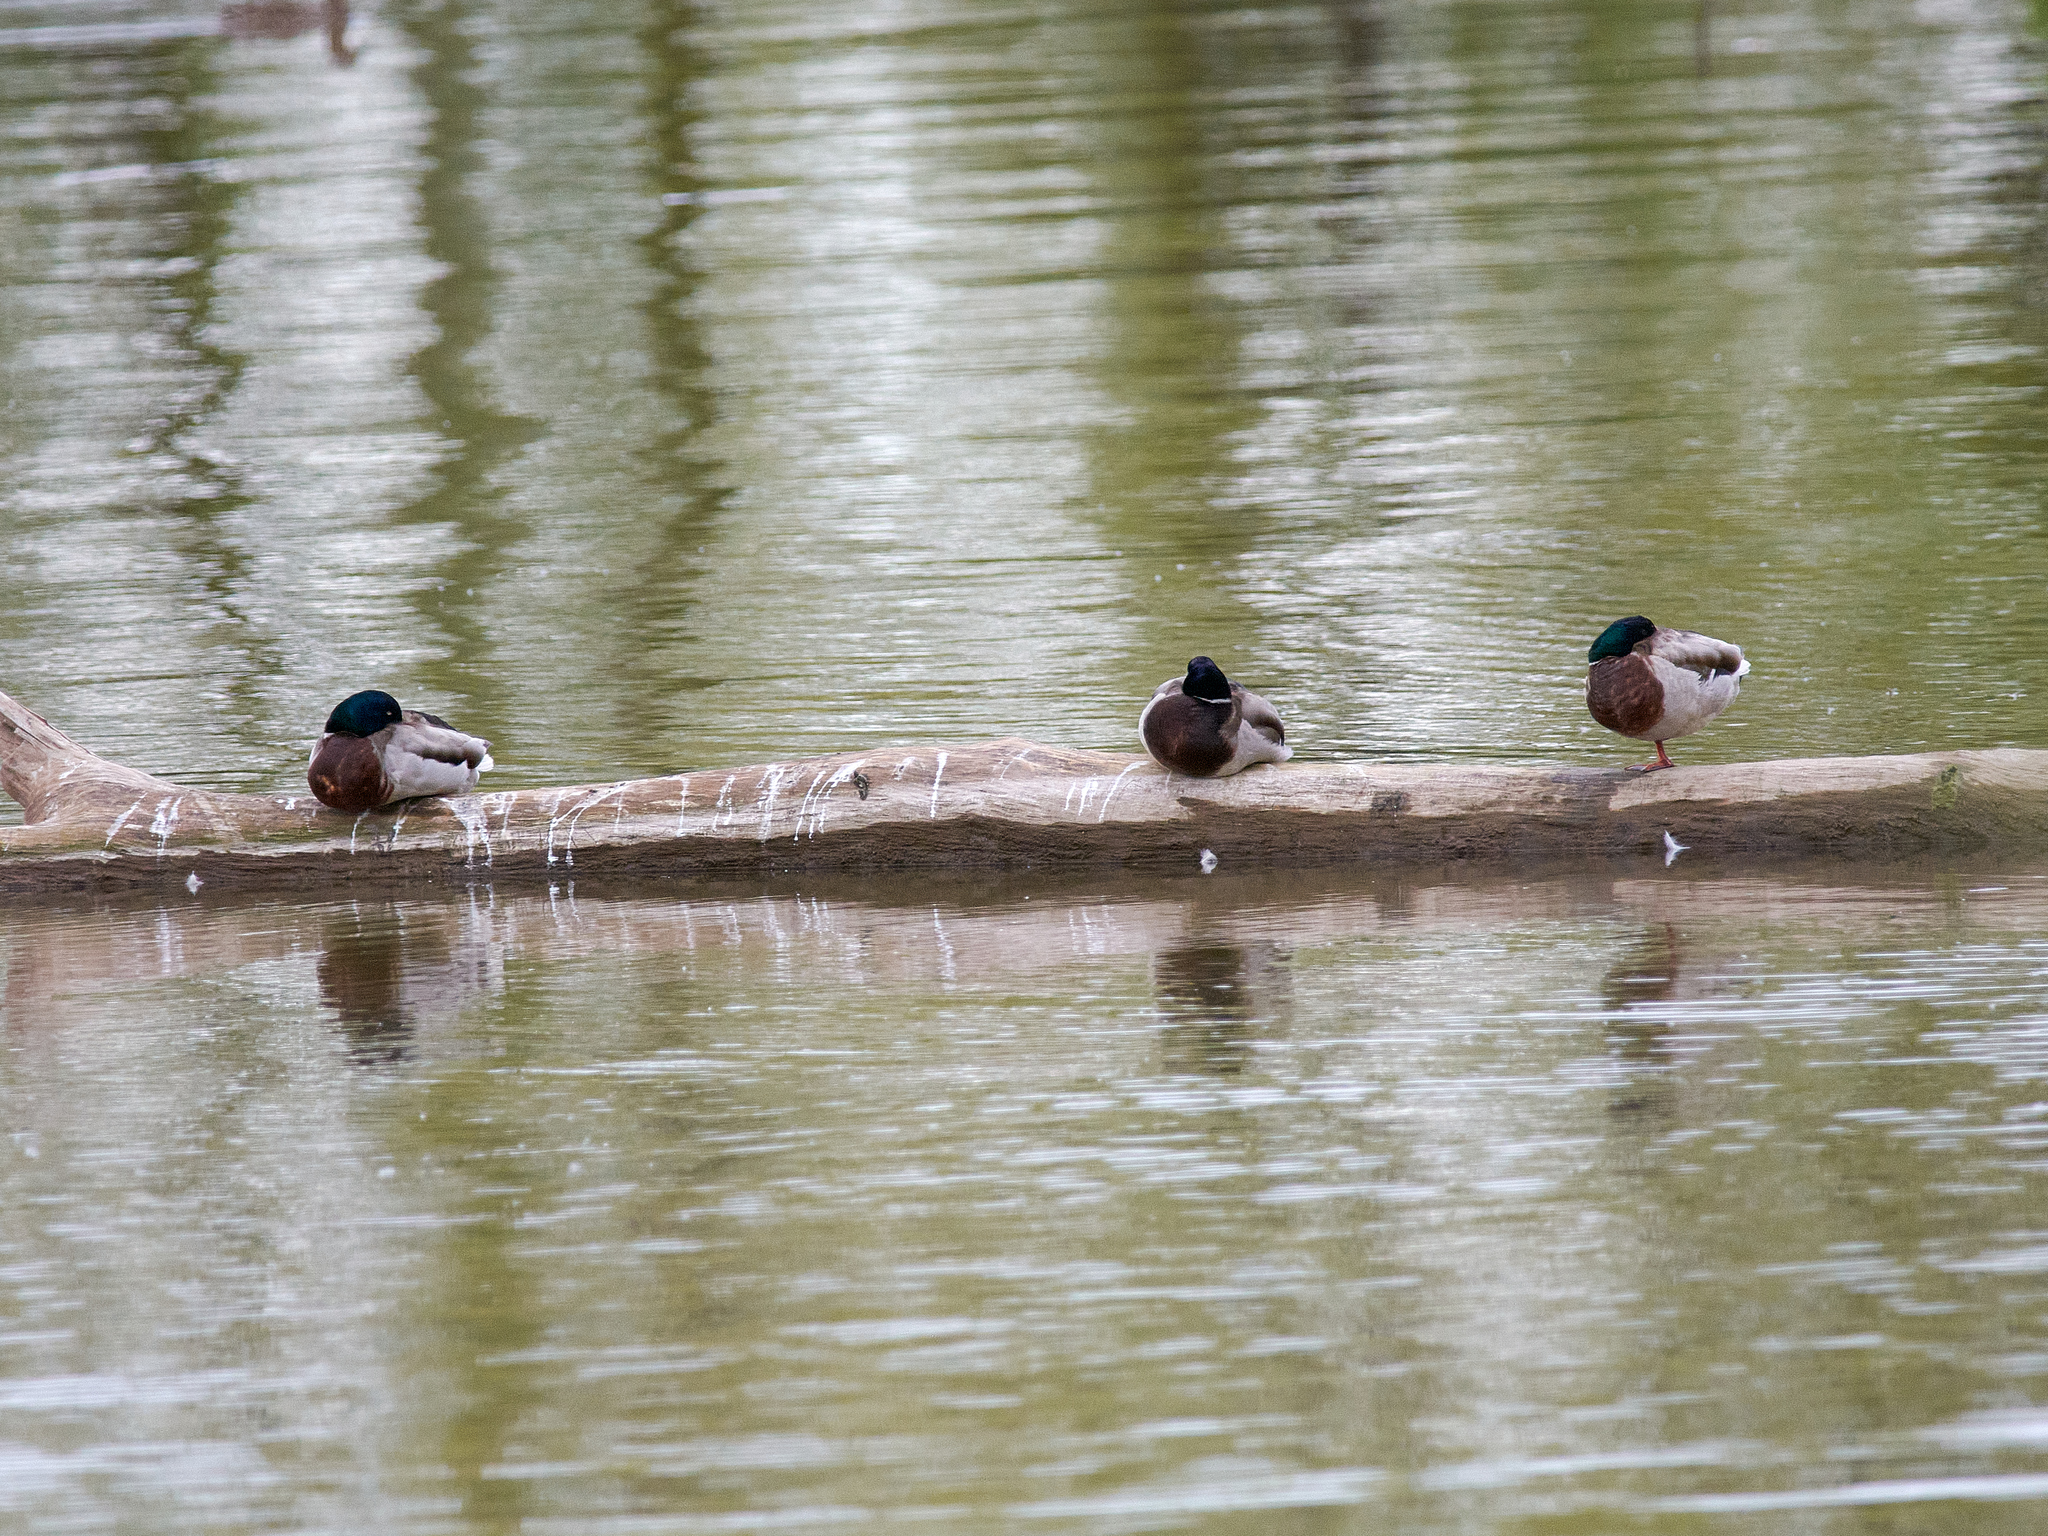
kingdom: Animalia
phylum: Chordata
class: Aves
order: Anseriformes
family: Anatidae
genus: Anas
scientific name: Anas platyrhynchos
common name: Mallard
